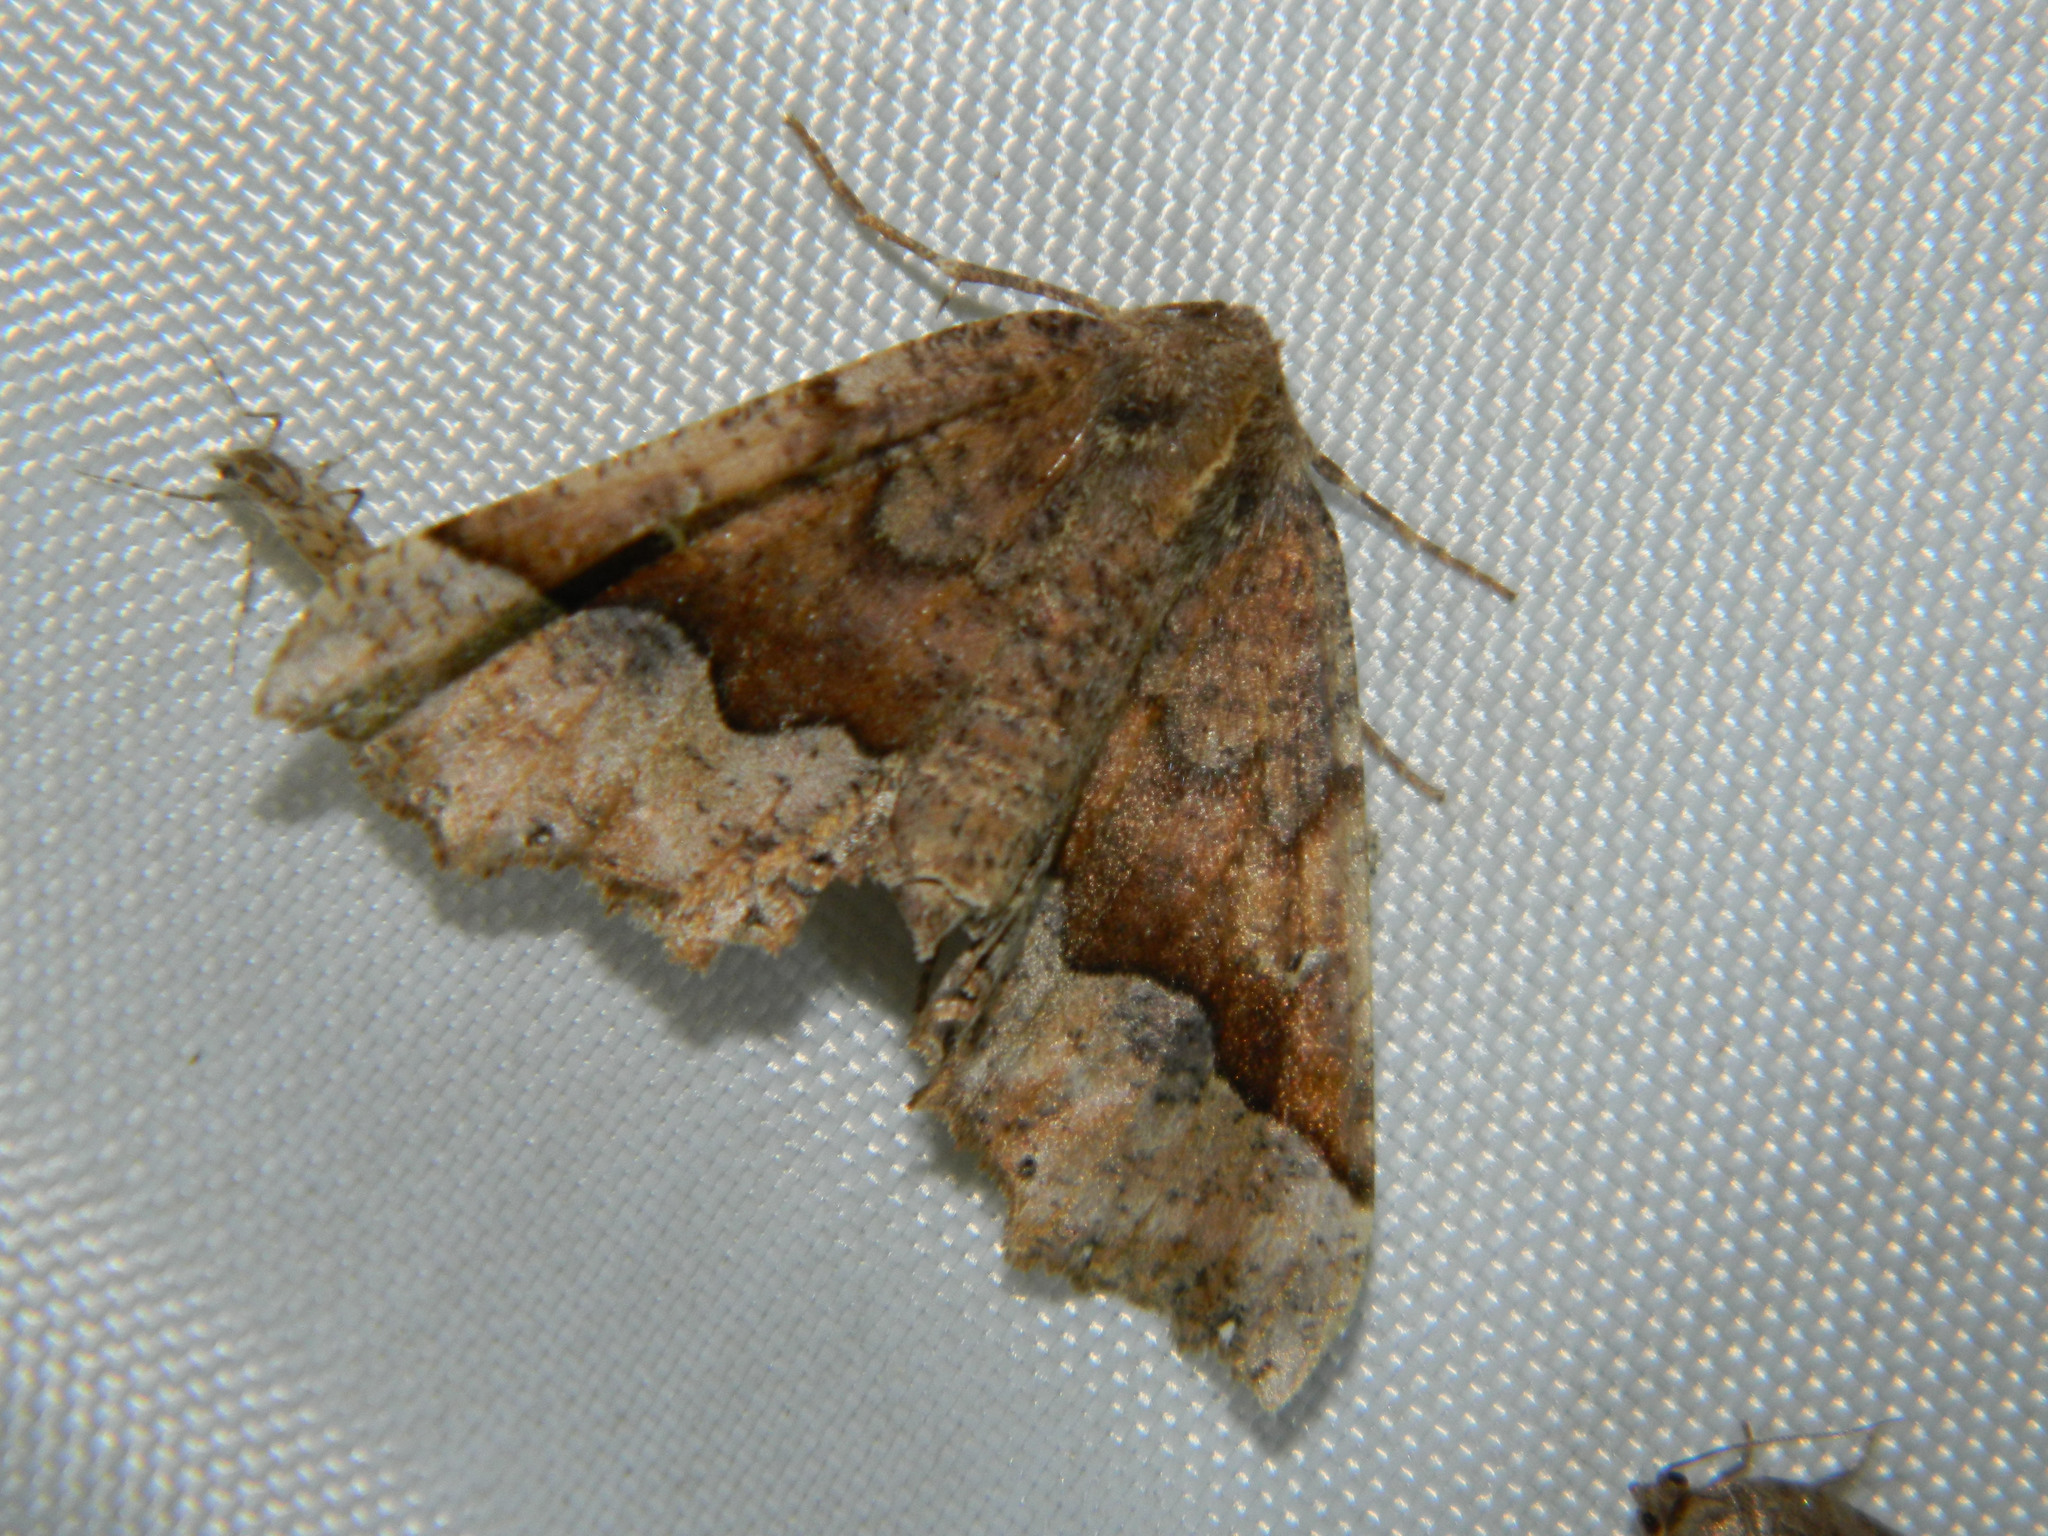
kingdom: Animalia
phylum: Arthropoda
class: Insecta
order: Lepidoptera
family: Geometridae
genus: Pero
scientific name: Pero morrisonaria
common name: Morrison's pero
